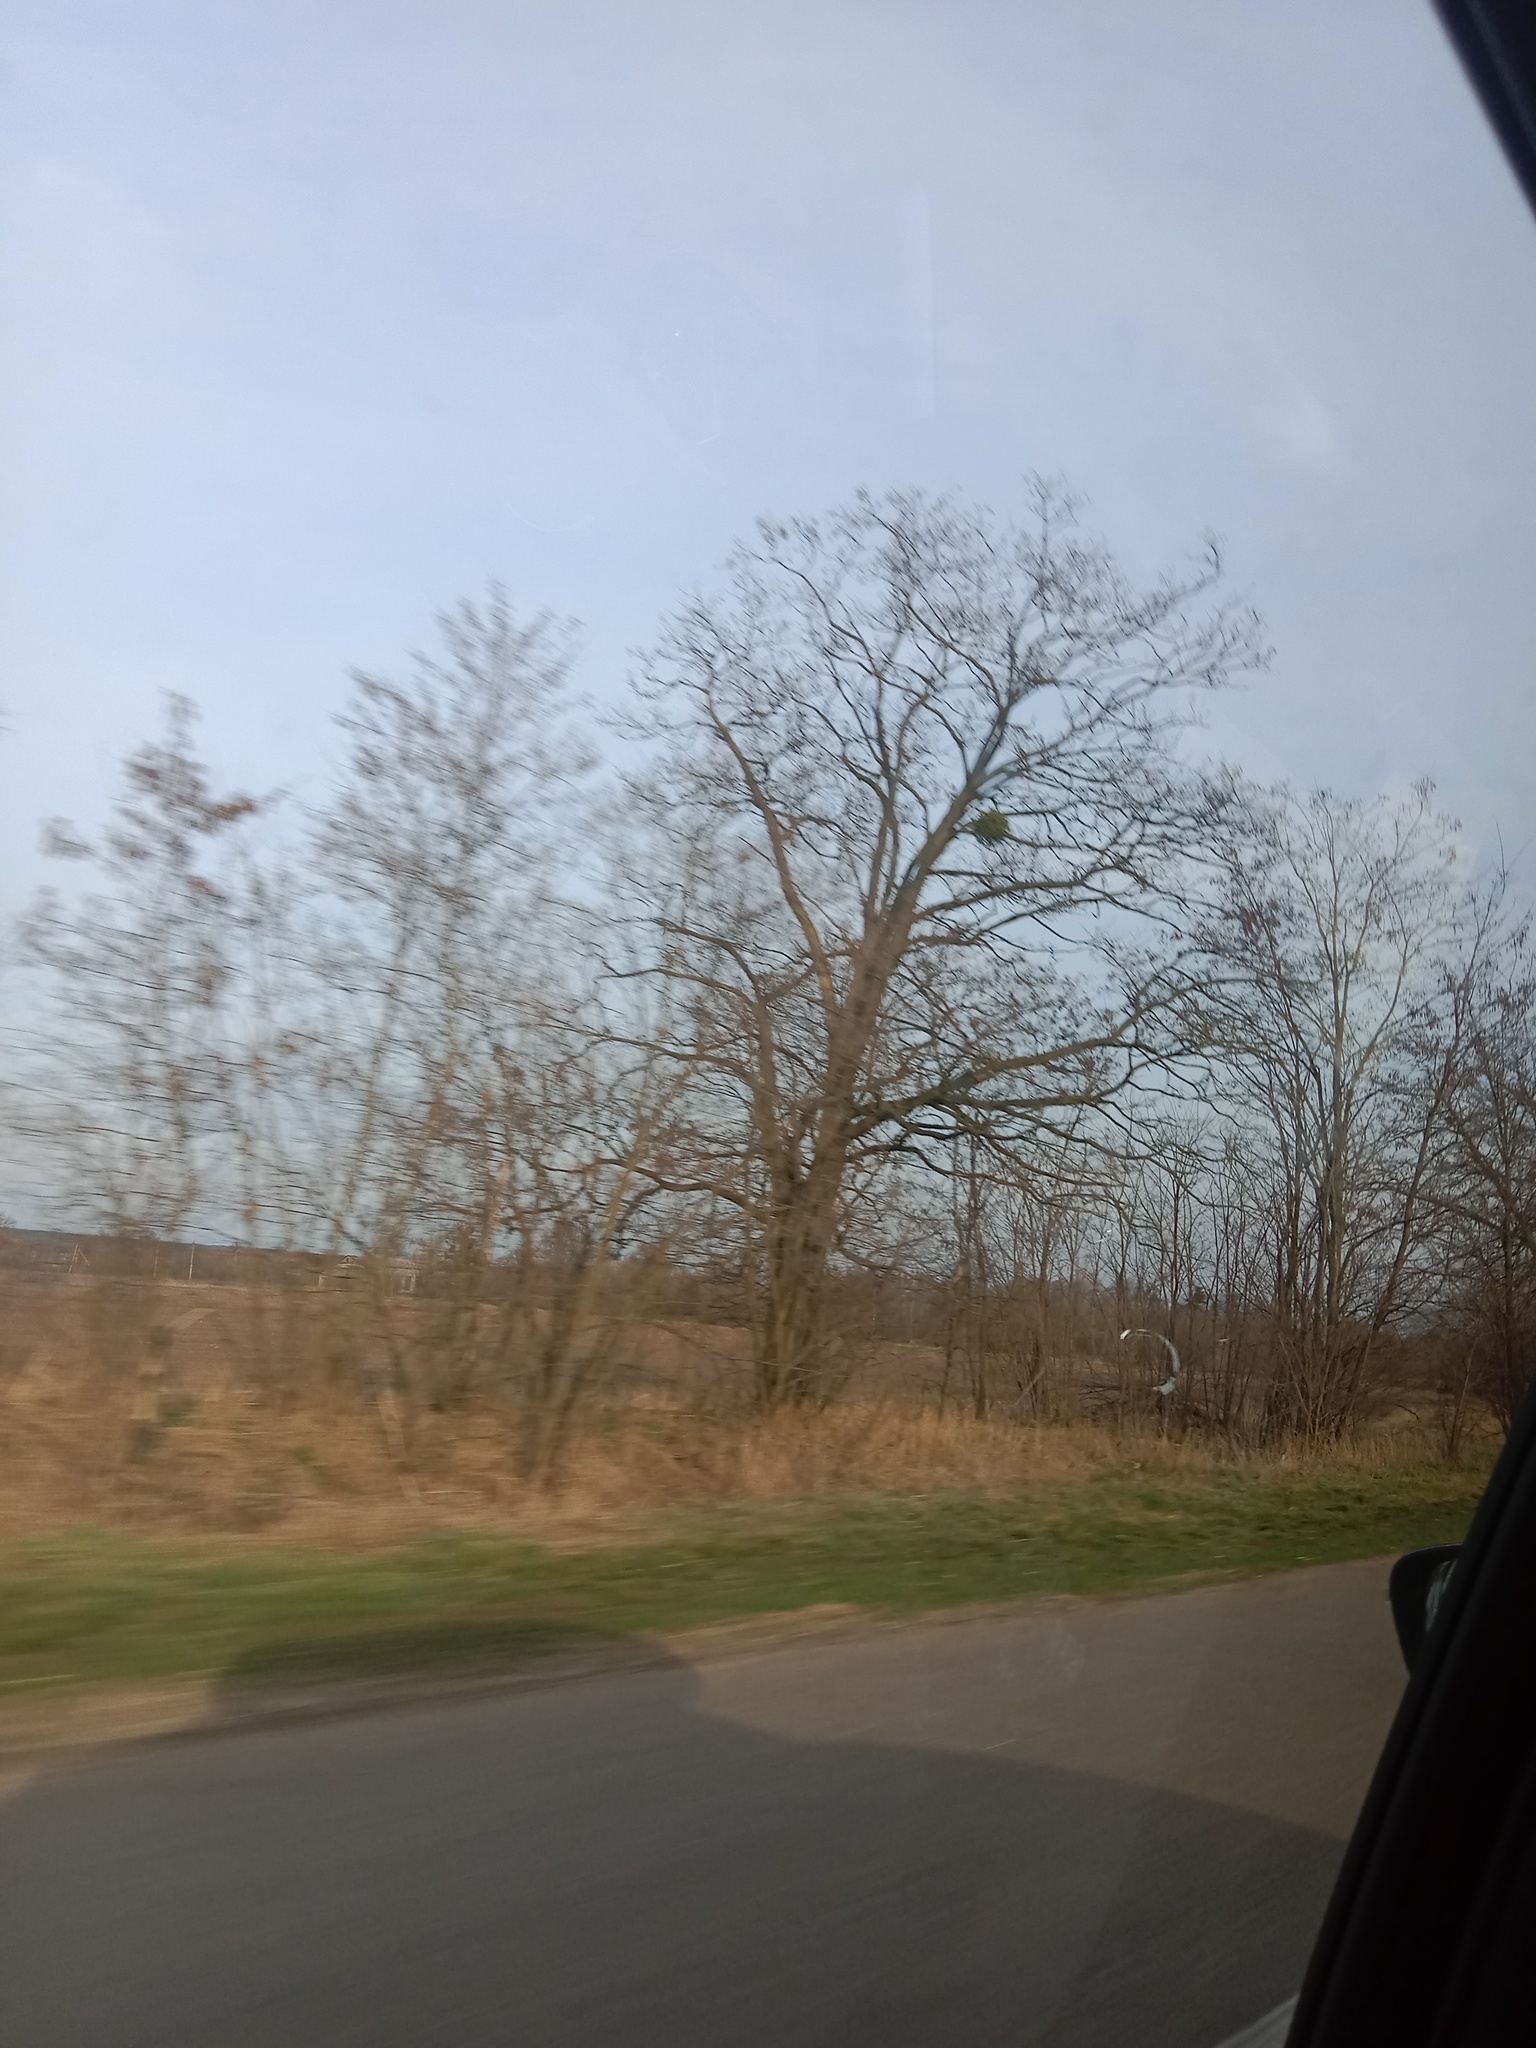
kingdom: Plantae
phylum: Tracheophyta
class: Magnoliopsida
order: Santalales
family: Viscaceae
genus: Viscum
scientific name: Viscum album
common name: Mistletoe
